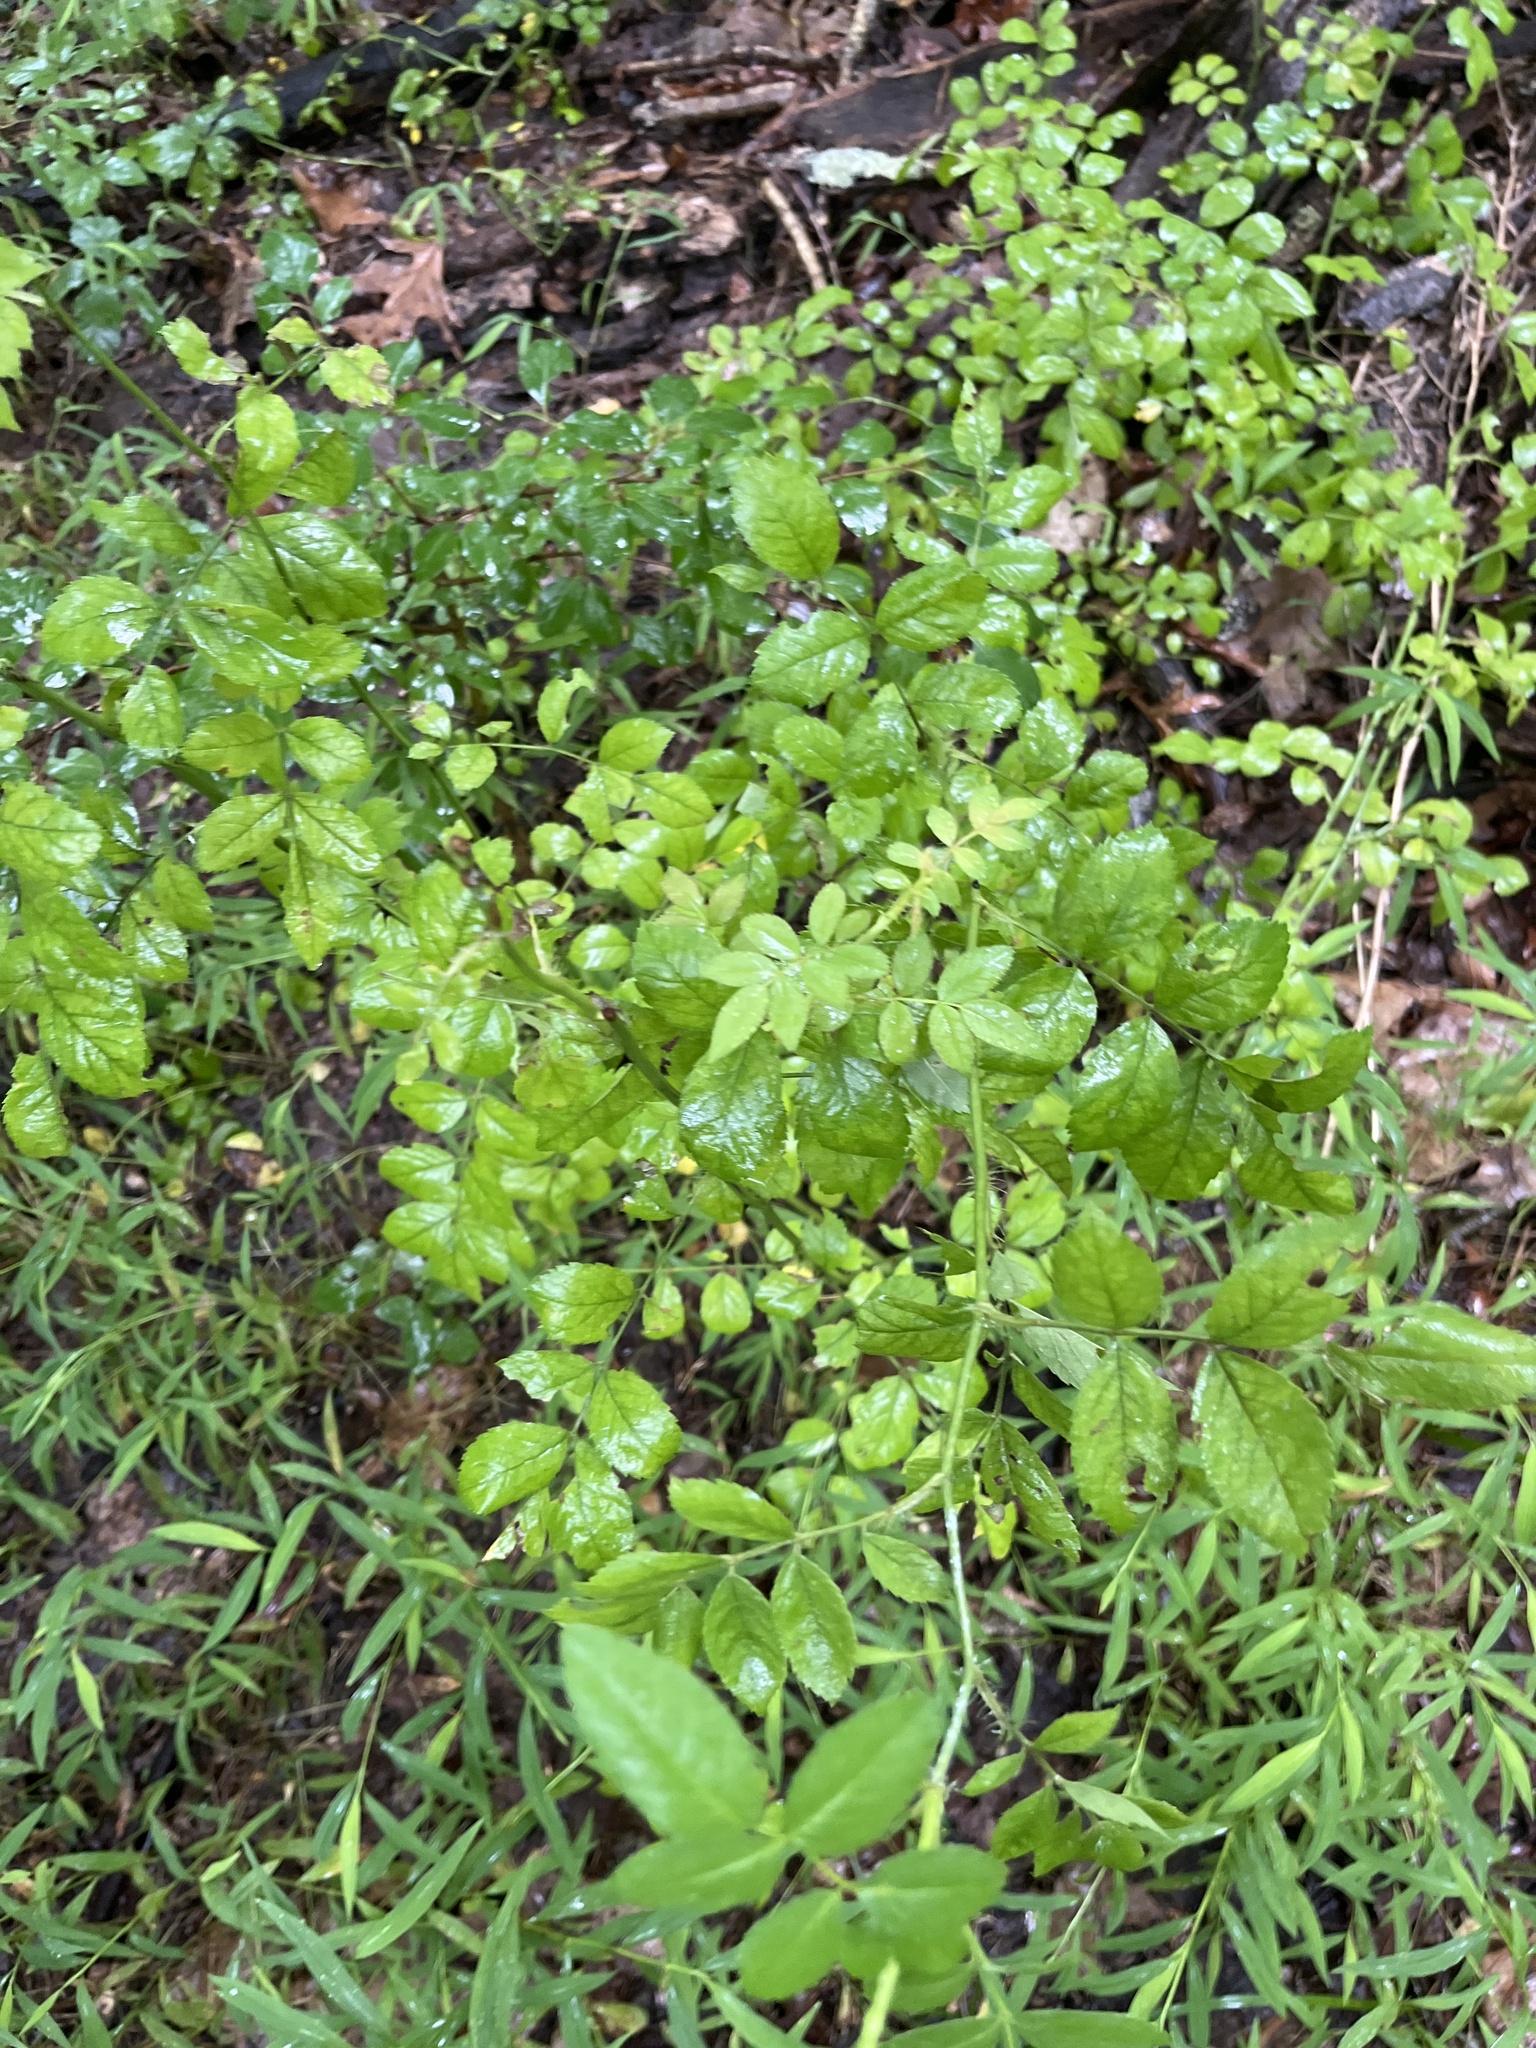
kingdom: Plantae
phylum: Tracheophyta
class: Magnoliopsida
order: Rosales
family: Rosaceae
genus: Rosa
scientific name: Rosa multiflora
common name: Multiflora rose
